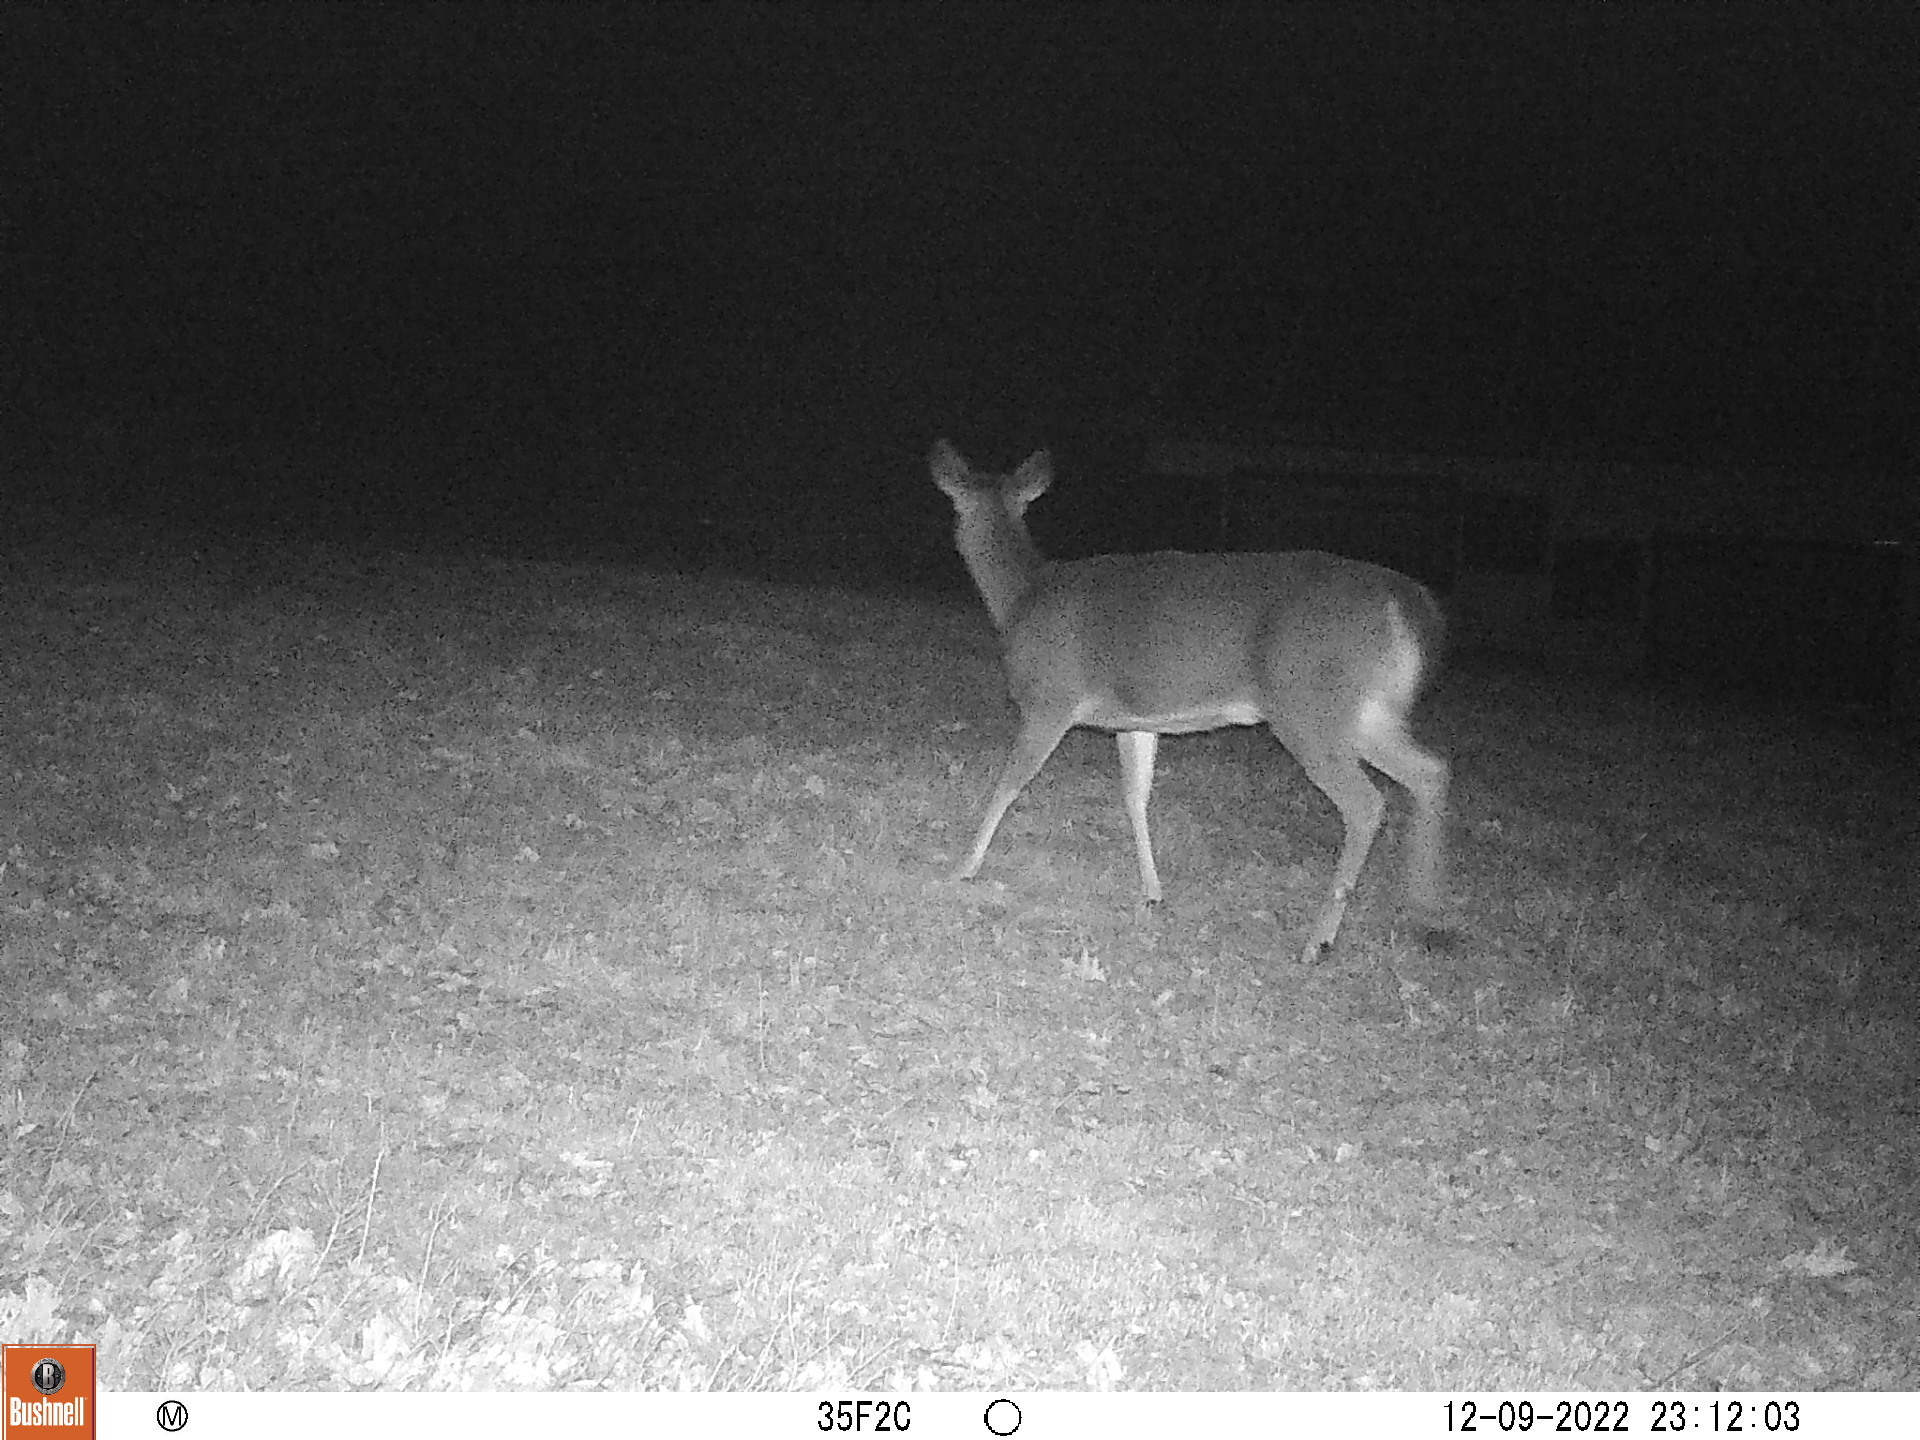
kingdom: Animalia
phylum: Chordata
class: Mammalia
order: Artiodactyla
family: Cervidae
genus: Odocoileus
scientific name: Odocoileus virginianus
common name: White-tailed deer
